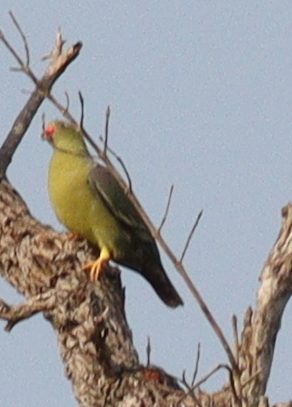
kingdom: Animalia
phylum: Chordata
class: Aves
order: Columbiformes
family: Columbidae
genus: Treron
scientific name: Treron calvus
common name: African green pigeon
